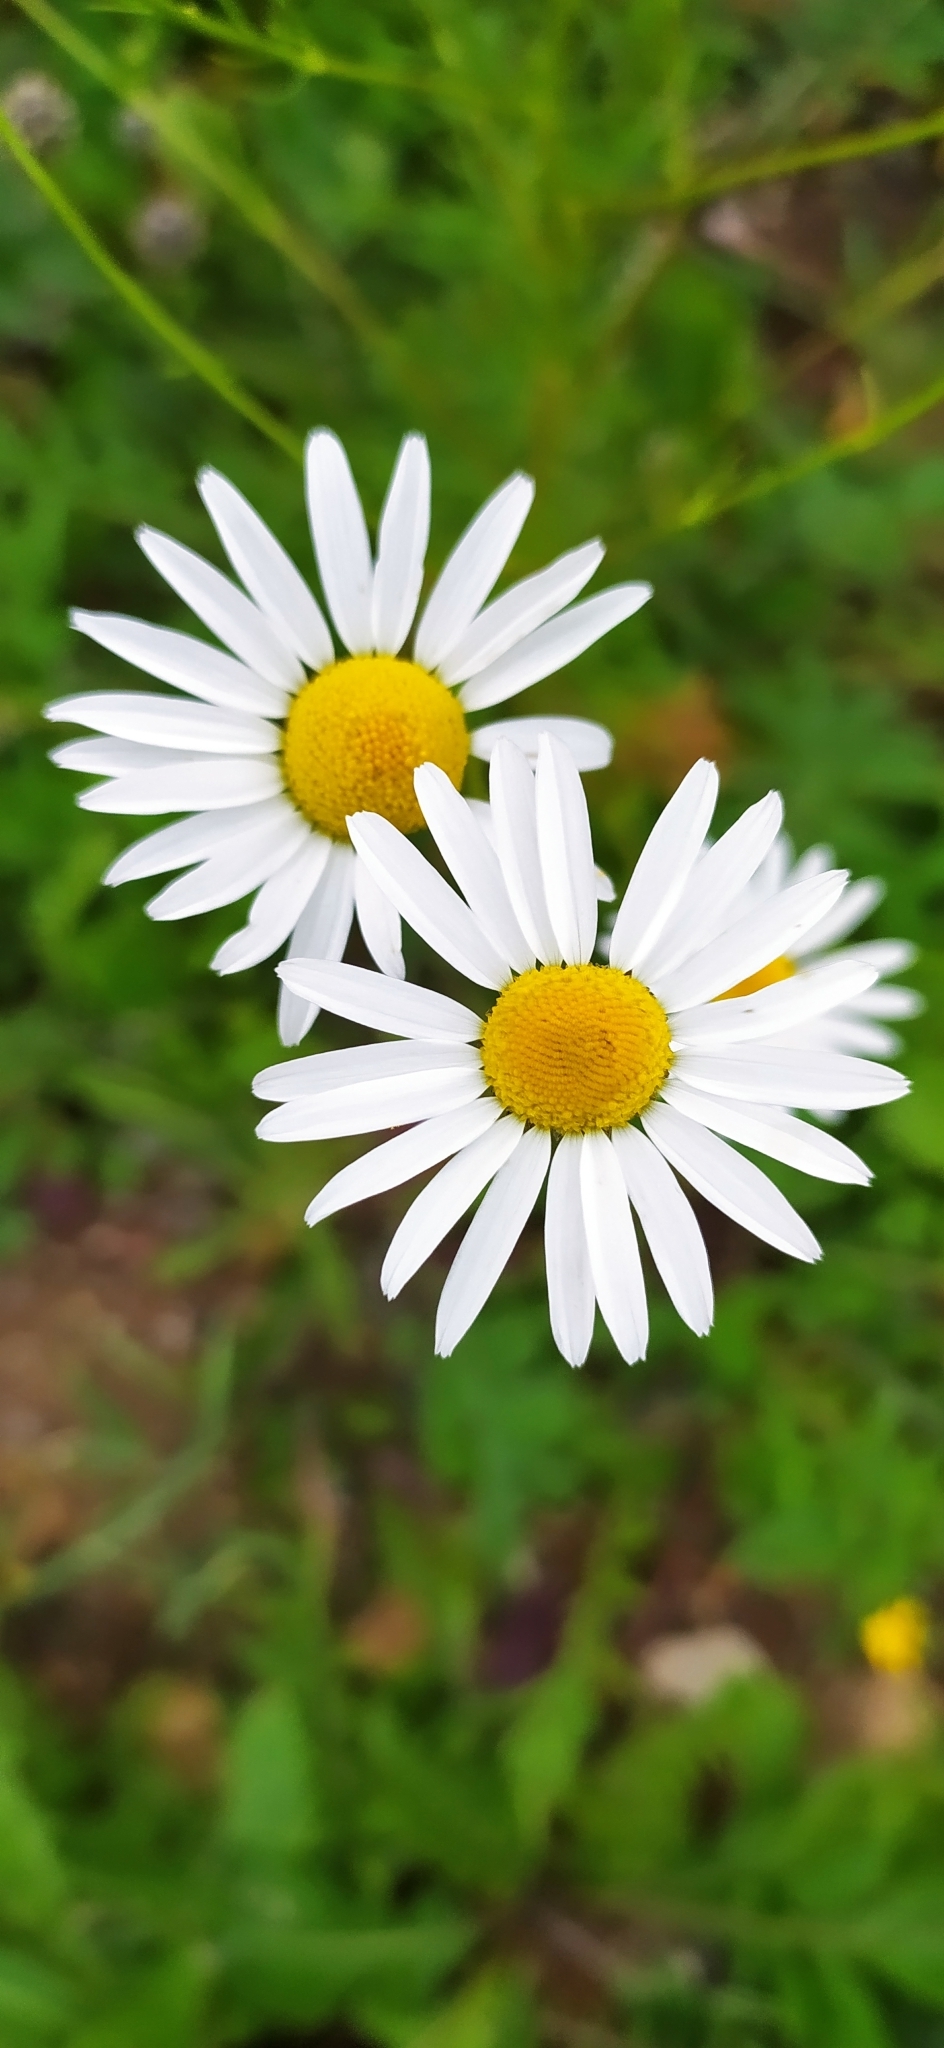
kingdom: Plantae
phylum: Tracheophyta
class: Magnoliopsida
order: Asterales
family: Asteraceae
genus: Tripleurospermum
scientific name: Tripleurospermum inodorum
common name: Scentless mayweed
